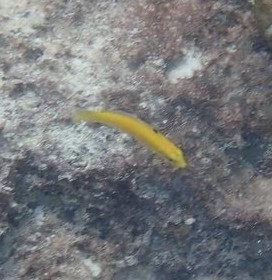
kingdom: Animalia
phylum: Chordata
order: Perciformes
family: Labridae
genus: Thalassoma
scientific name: Thalassoma bifasciatum
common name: Bluehead wrasse
